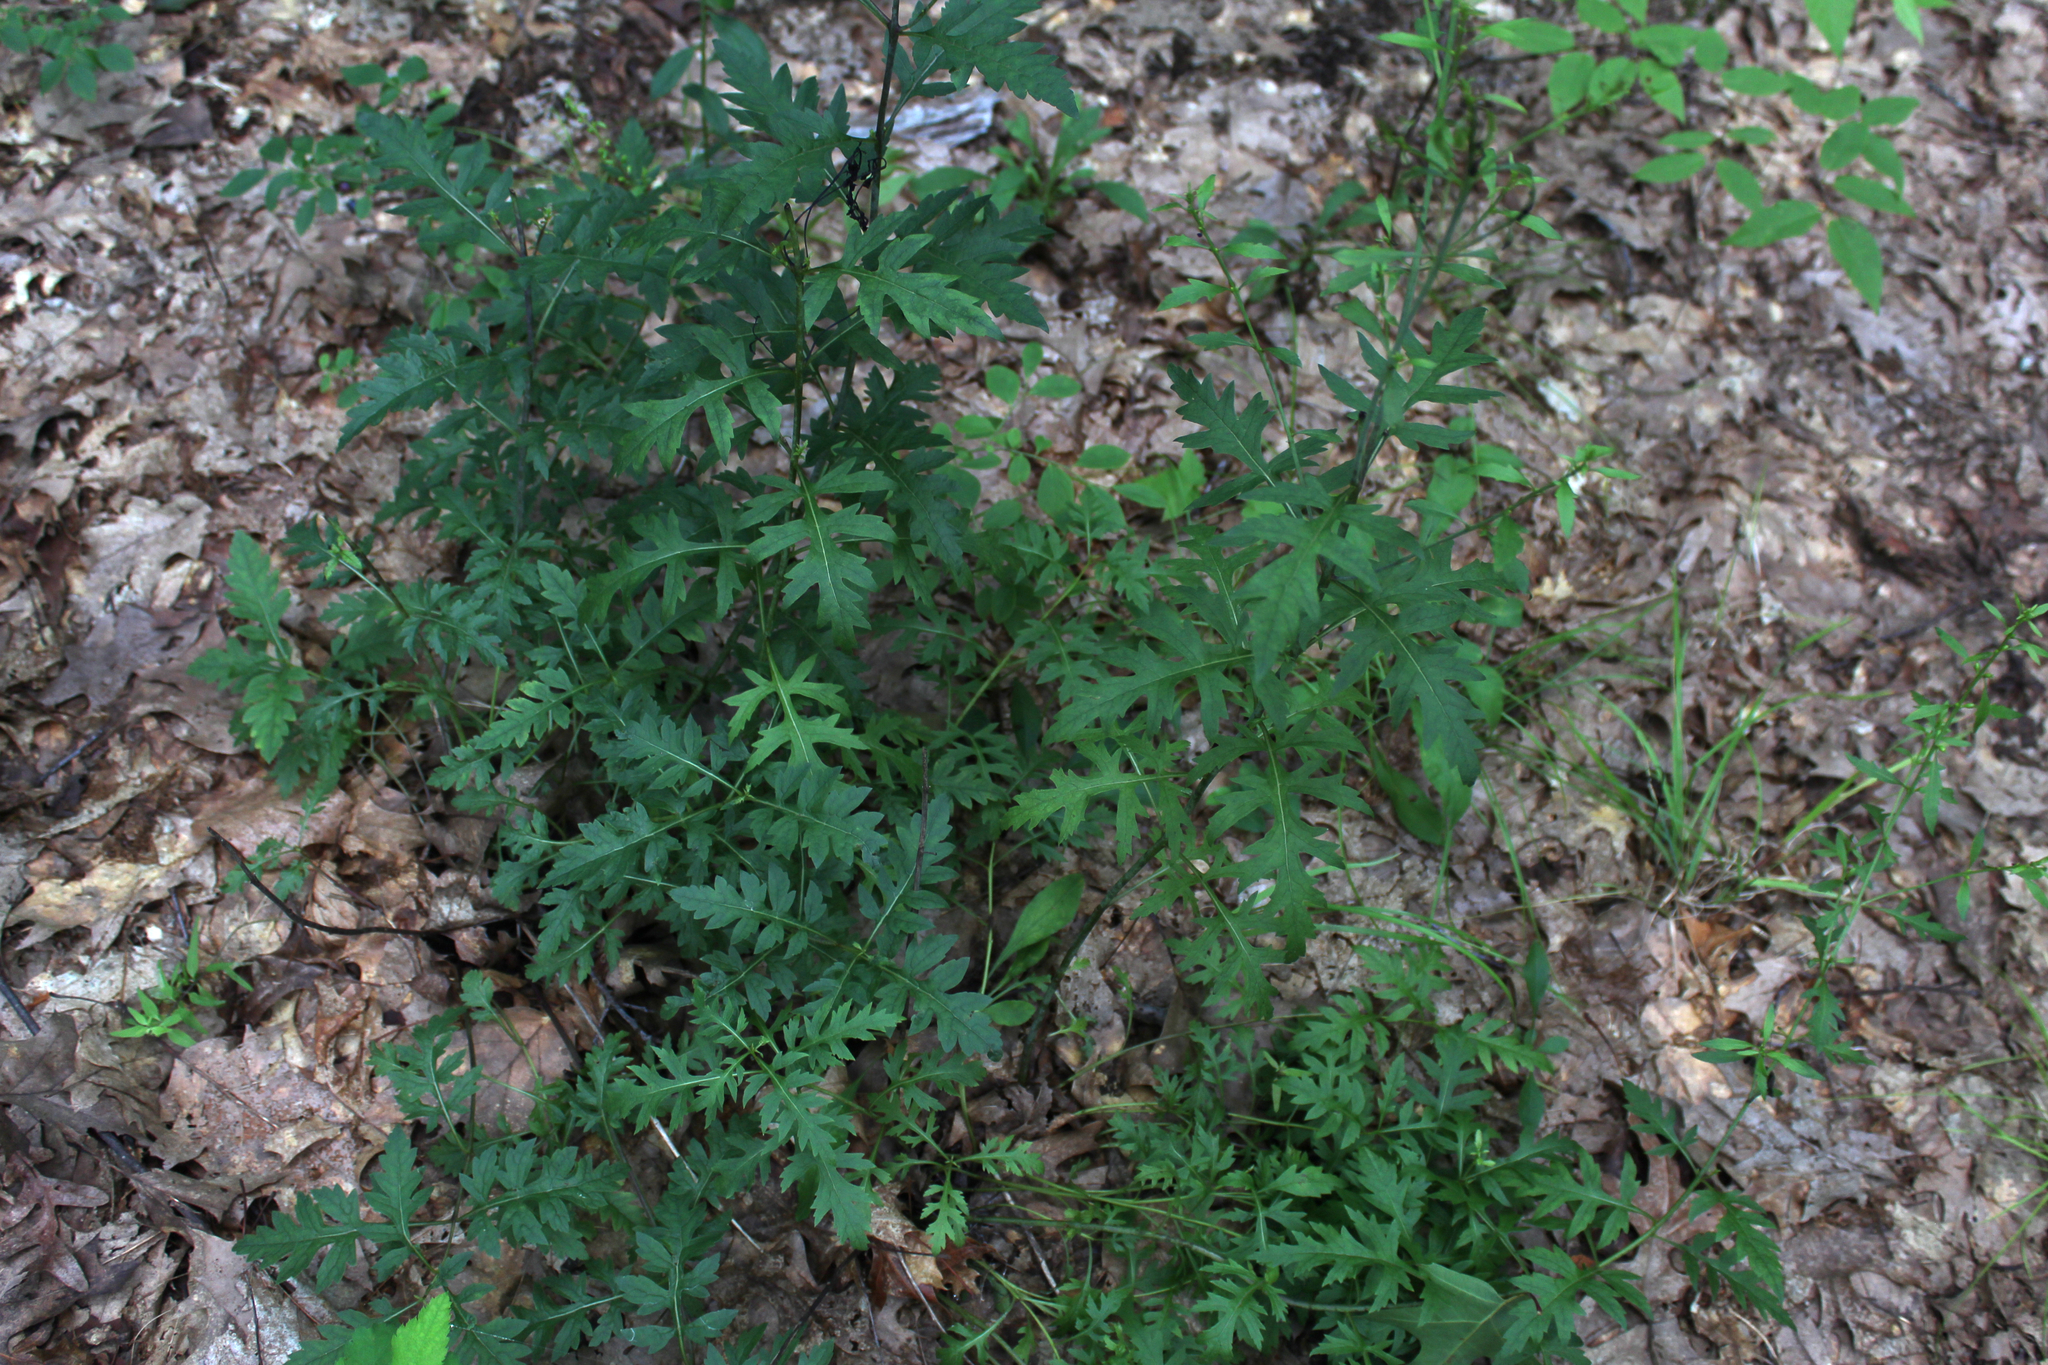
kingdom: Plantae
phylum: Tracheophyta
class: Magnoliopsida
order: Lamiales
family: Orobanchaceae
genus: Aureolaria
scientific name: Aureolaria flava
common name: Smooth false foxglove
